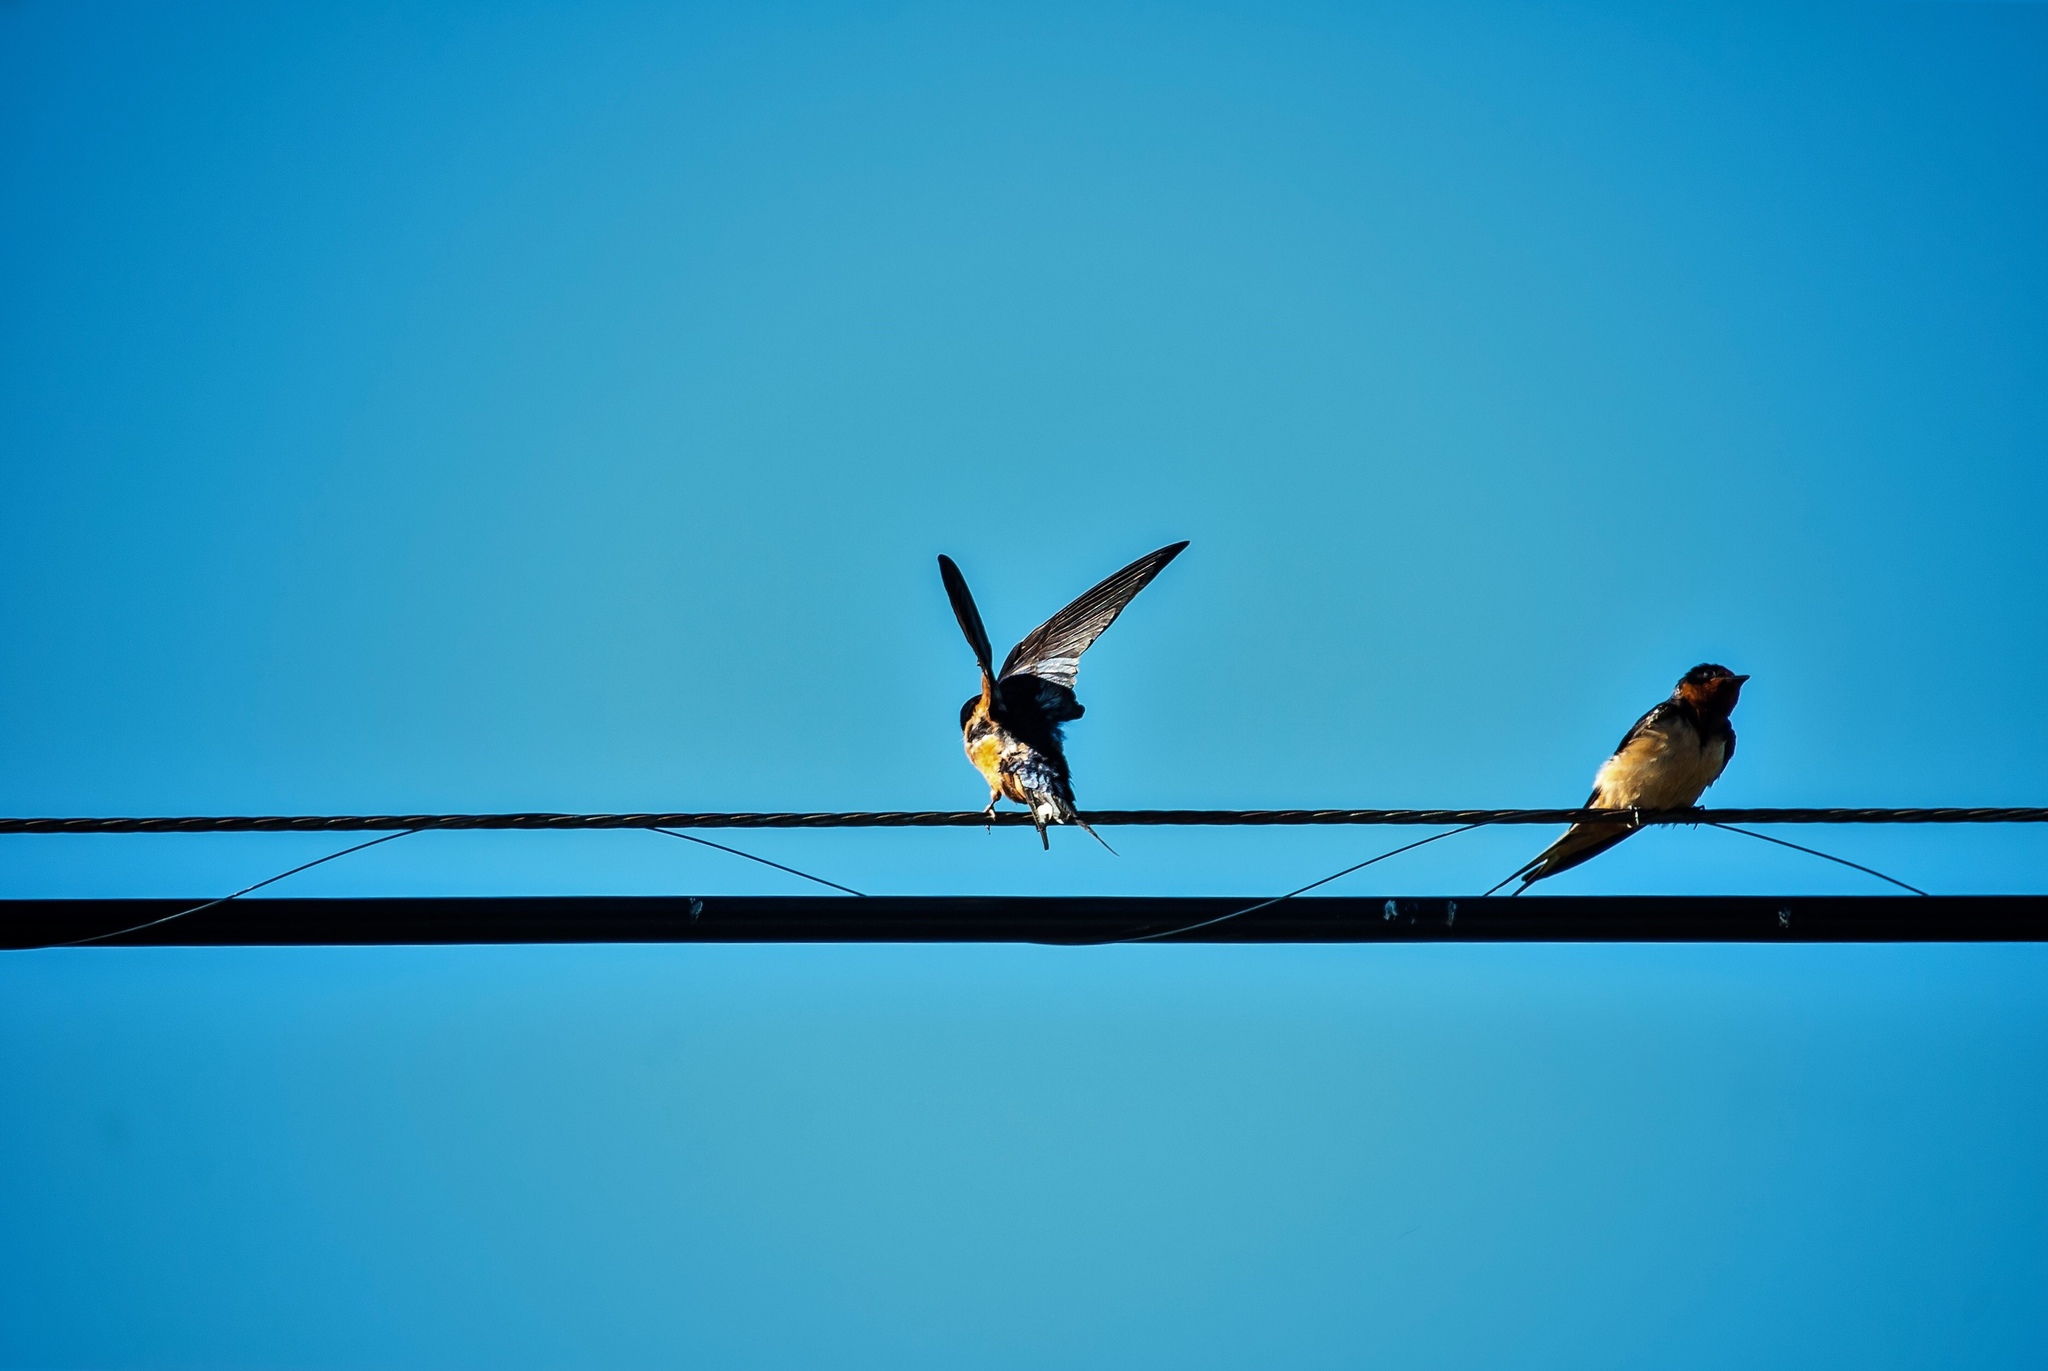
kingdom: Animalia
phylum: Chordata
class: Aves
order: Passeriformes
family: Hirundinidae
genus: Hirundo
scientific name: Hirundo rustica
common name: Barn swallow
